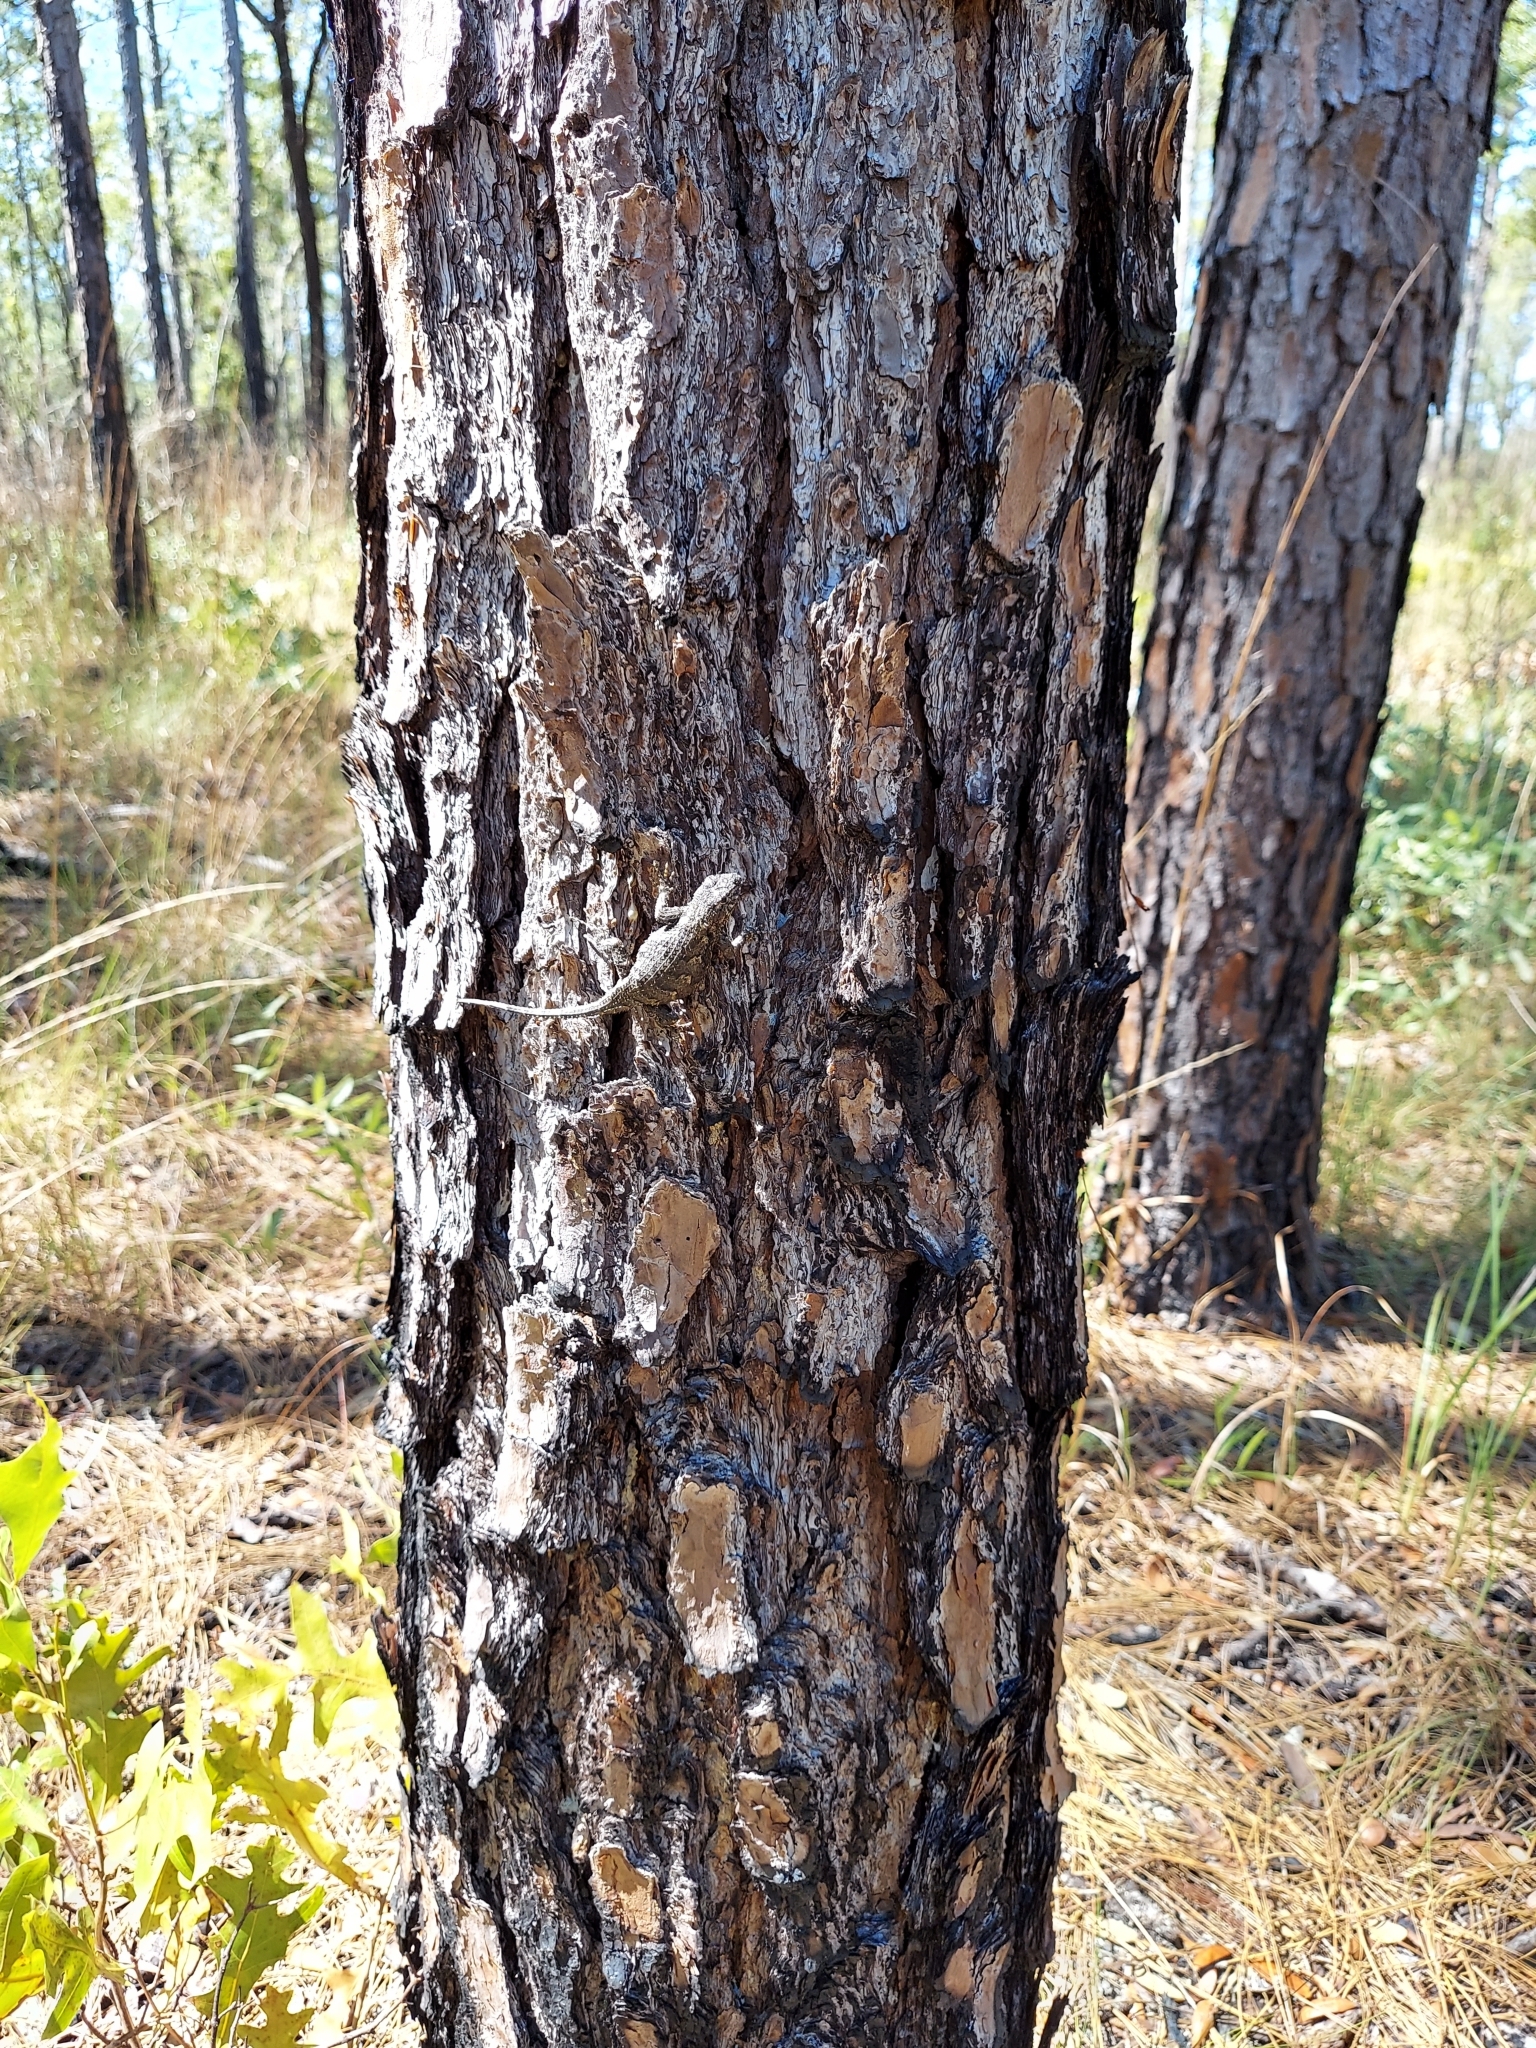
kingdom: Animalia
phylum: Chordata
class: Squamata
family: Phrynosomatidae
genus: Sceloporus
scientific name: Sceloporus undulatus
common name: Eastern fence lizard
